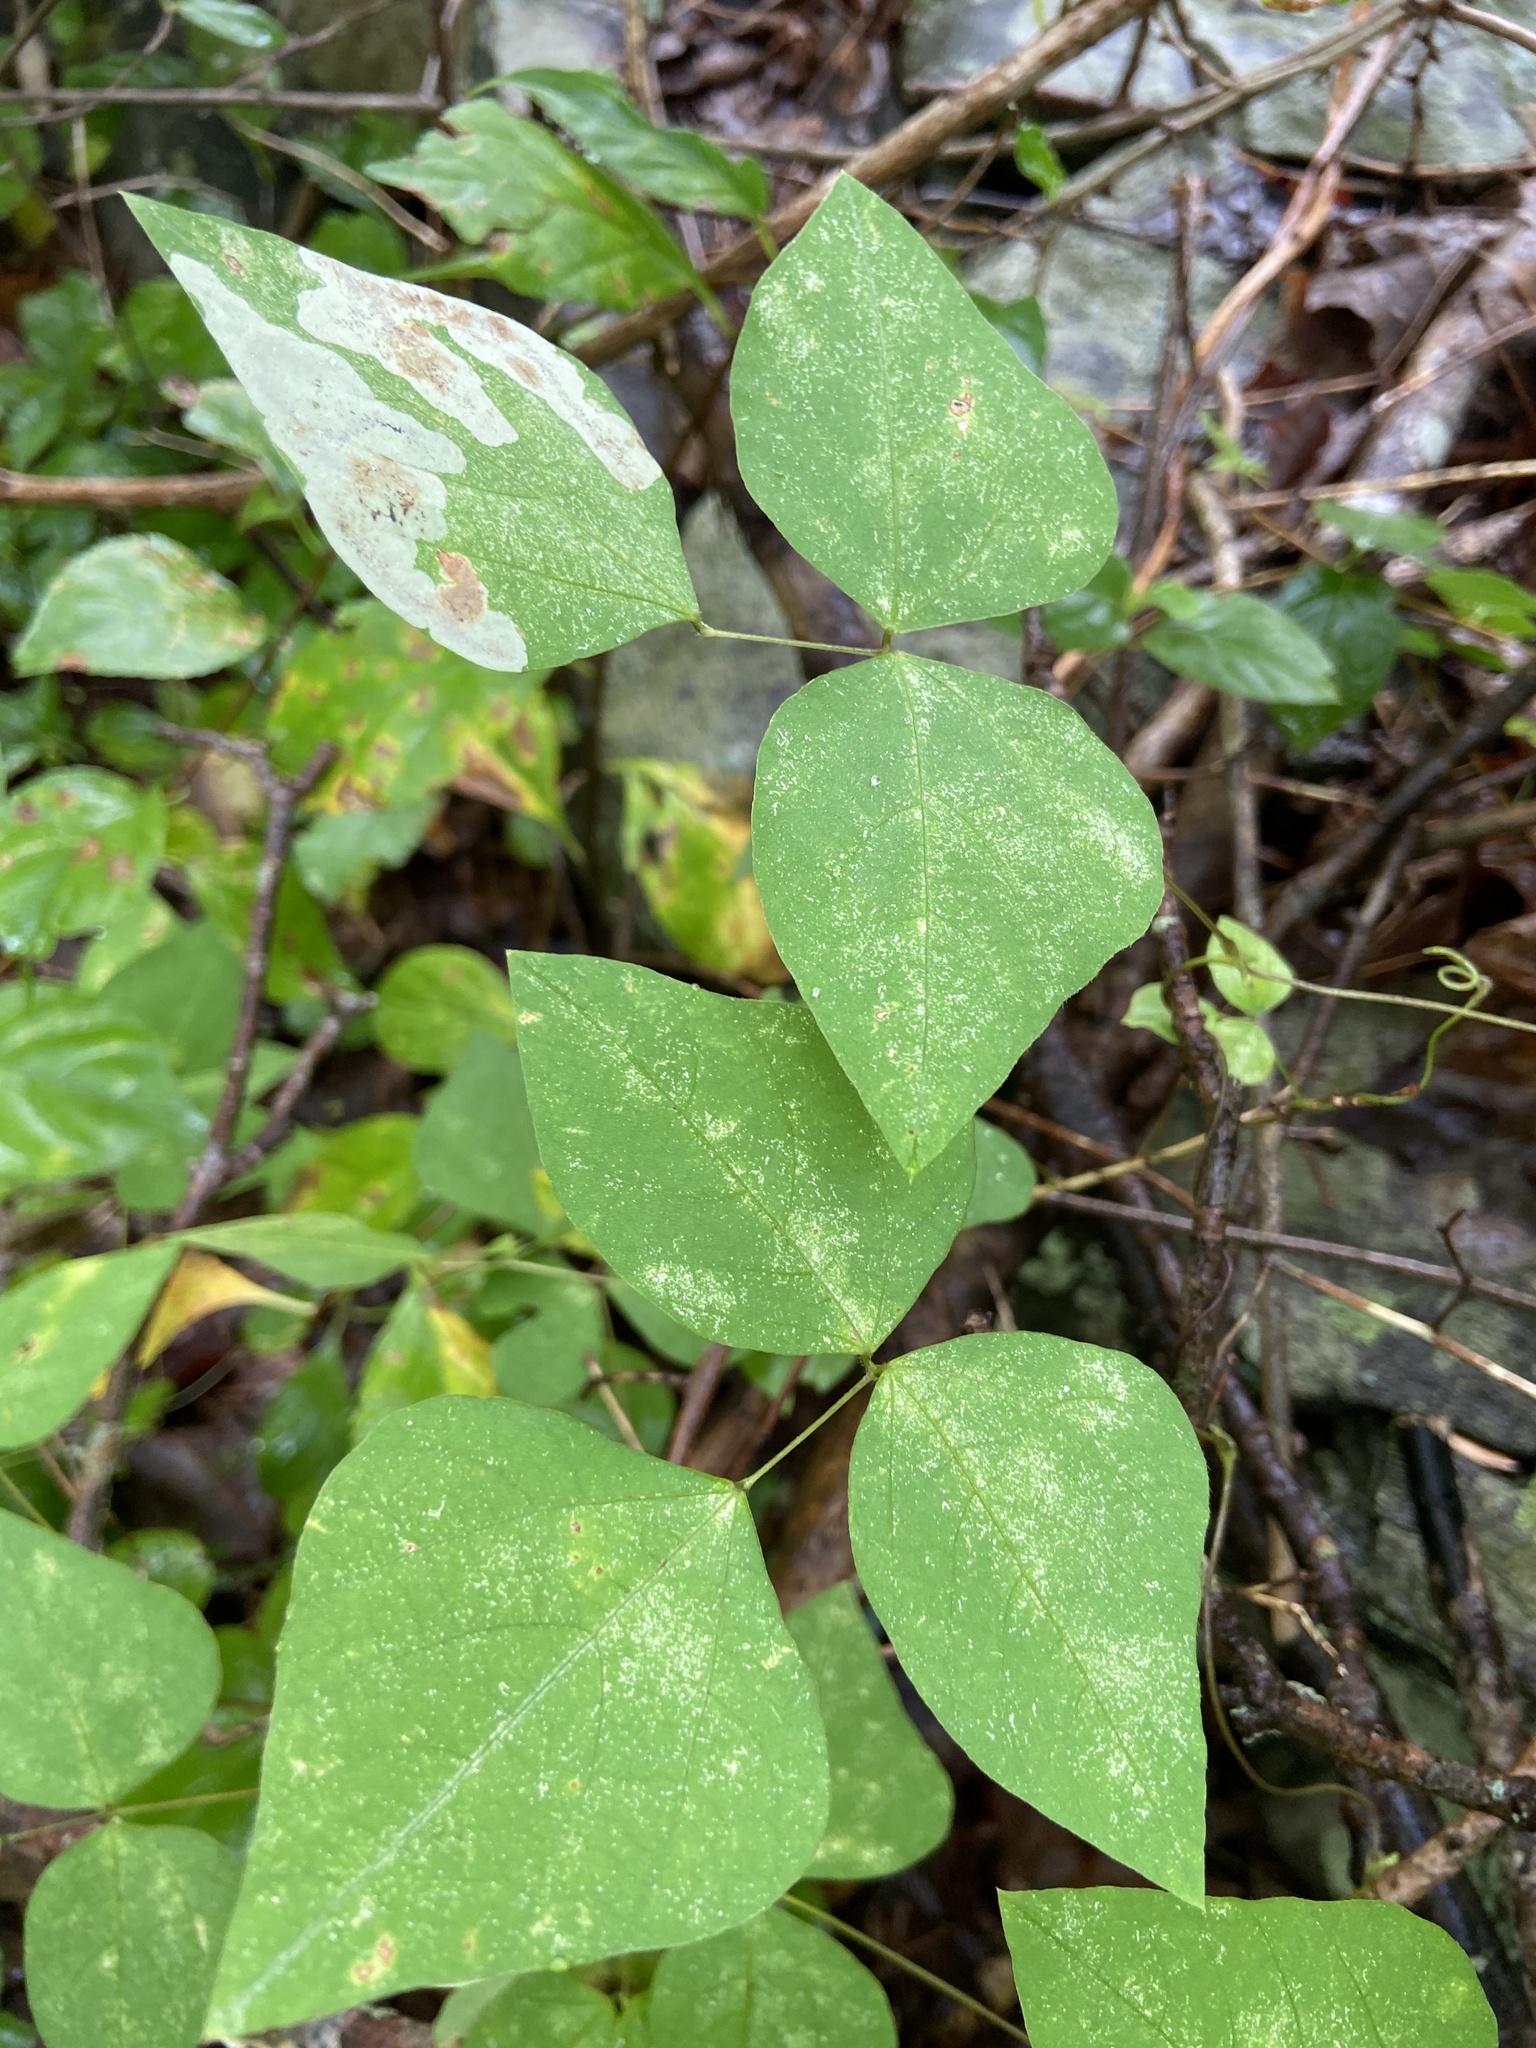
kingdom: Plantae
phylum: Tracheophyta
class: Magnoliopsida
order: Fabales
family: Fabaceae
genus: Amphicarpaea
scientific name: Amphicarpaea bracteata
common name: American hog peanut
